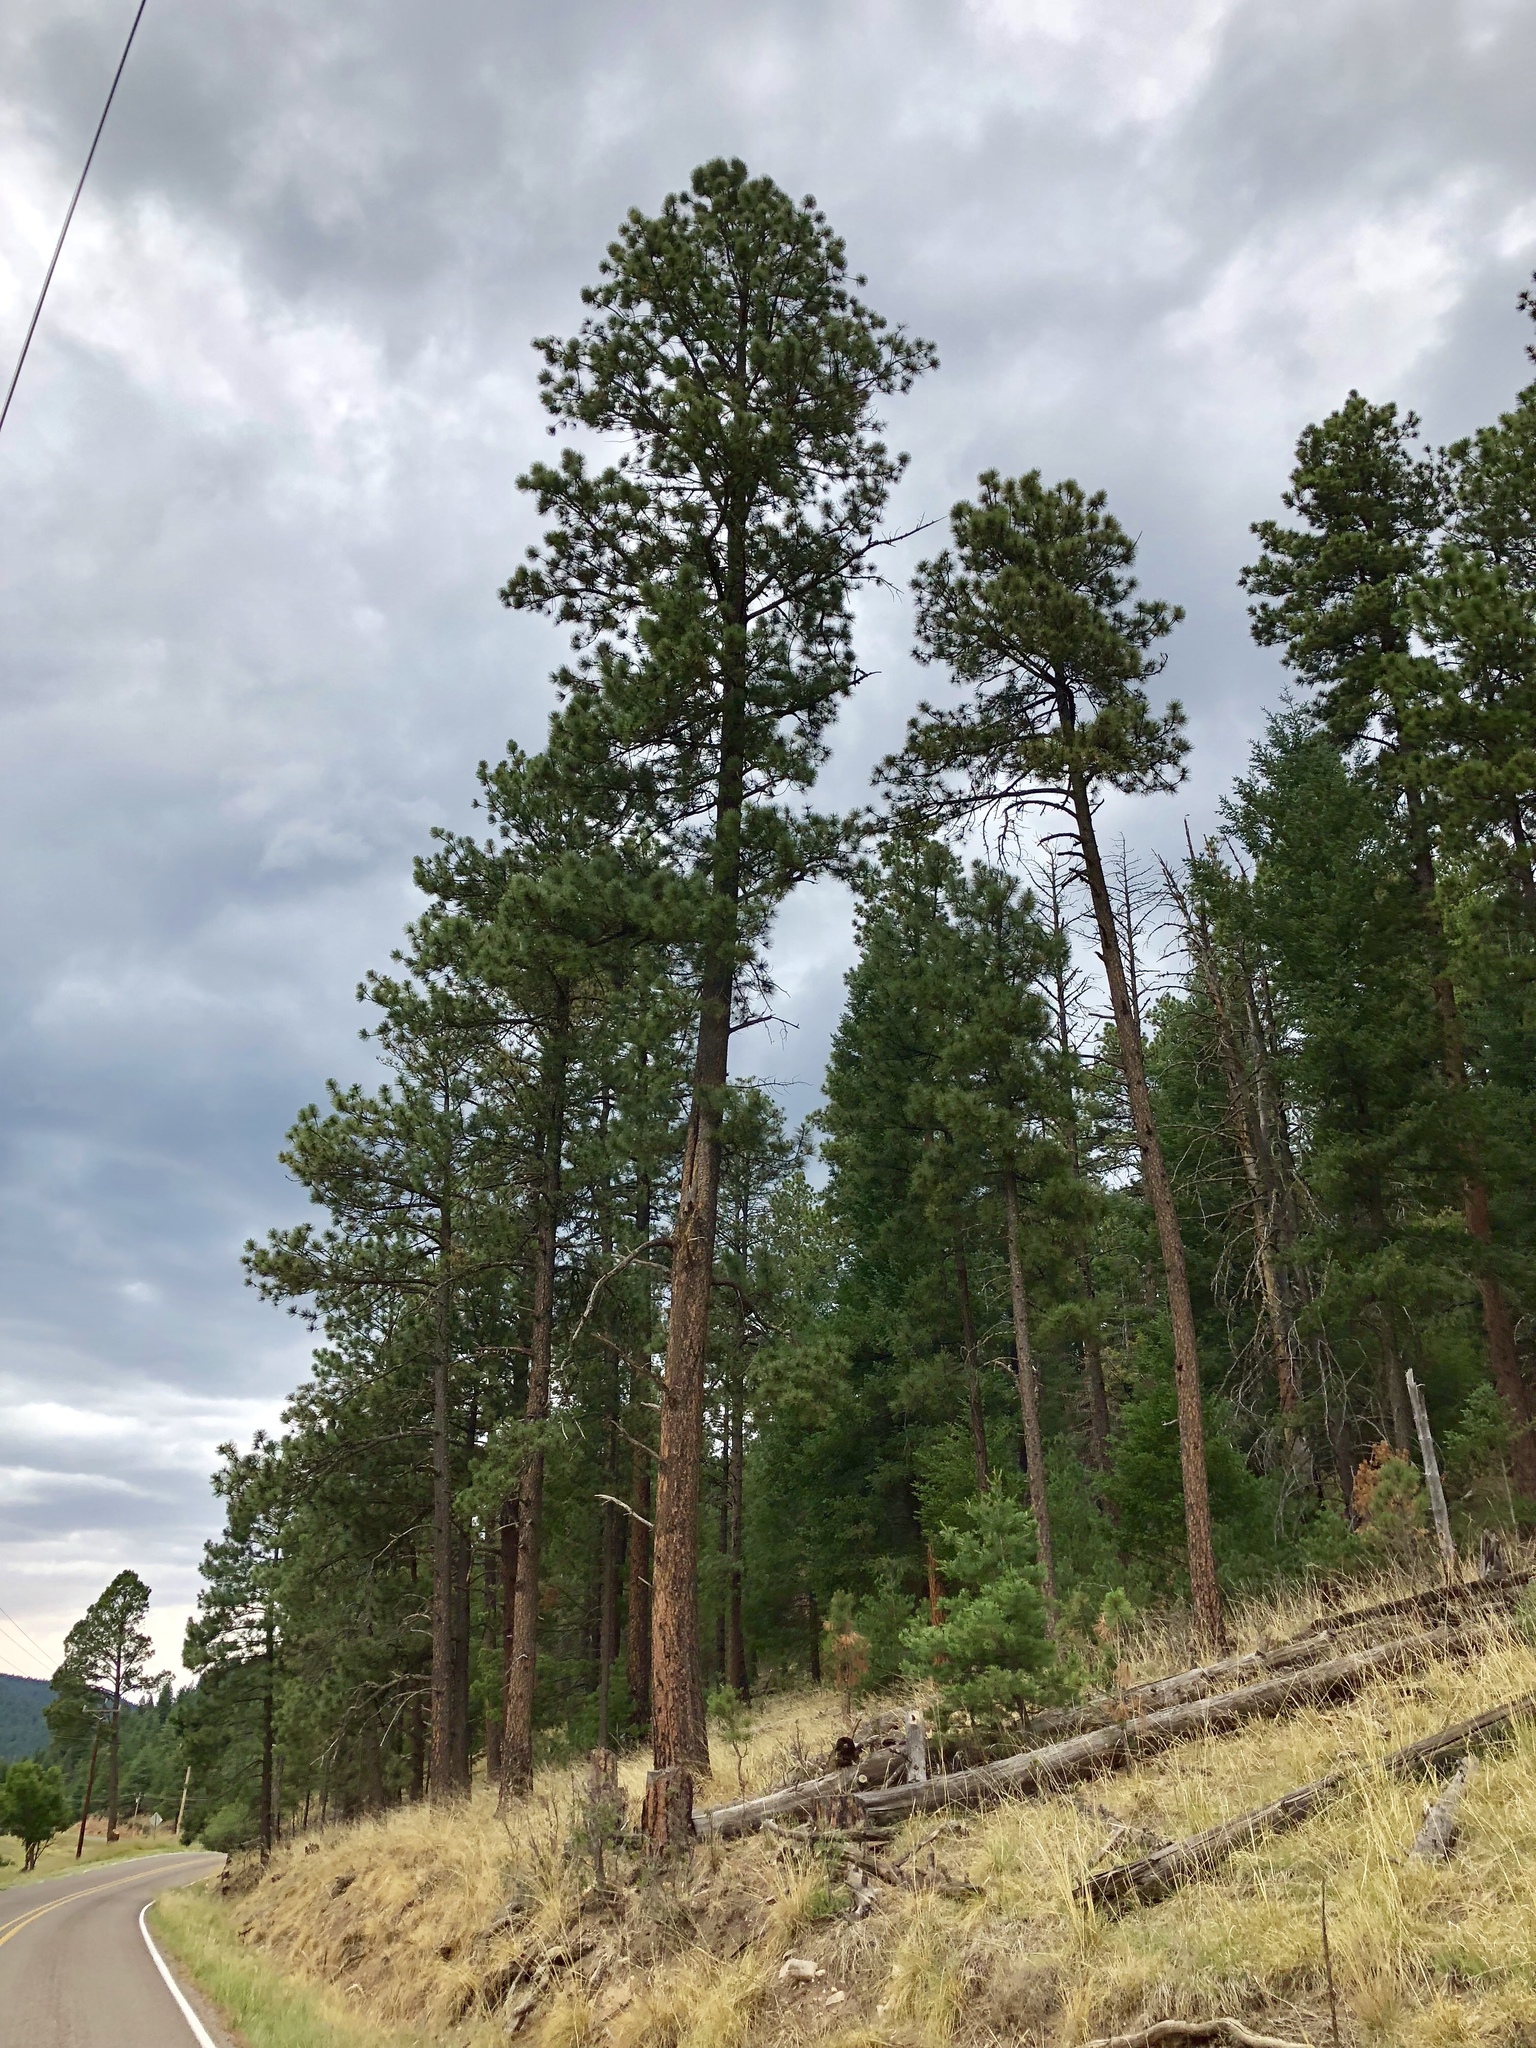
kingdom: Plantae
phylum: Tracheophyta
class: Pinopsida
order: Pinales
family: Pinaceae
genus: Pinus
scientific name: Pinus ponderosa
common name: Western yellow-pine
